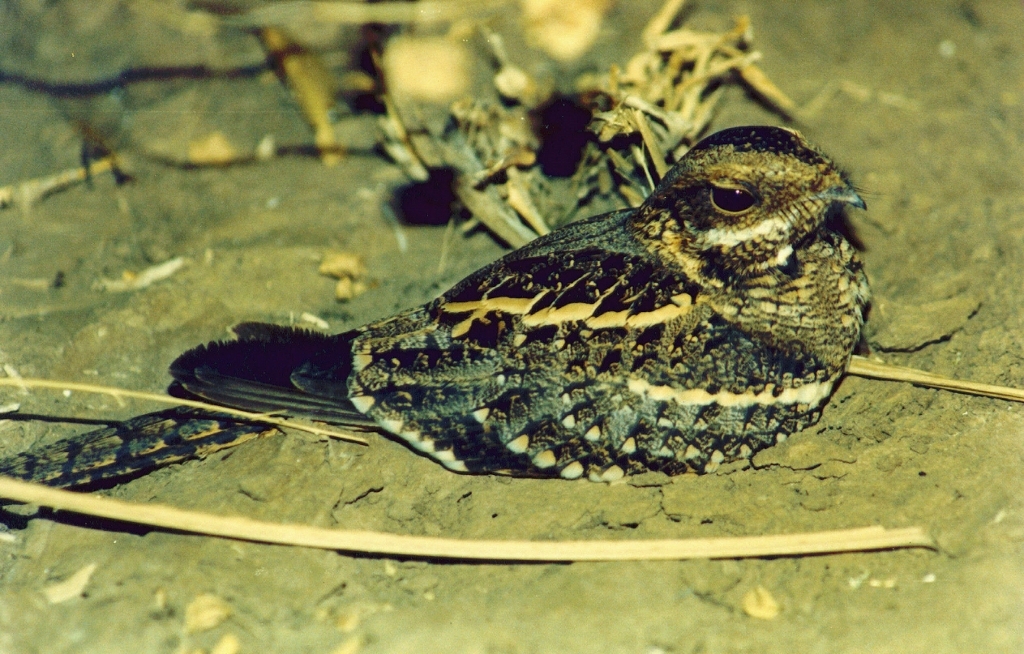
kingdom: Animalia
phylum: Chordata
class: Aves
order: Caprimulgiformes
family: Caprimulgidae
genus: Caprimulgus
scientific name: Caprimulgus fossii
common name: Square-tailed nightjar
